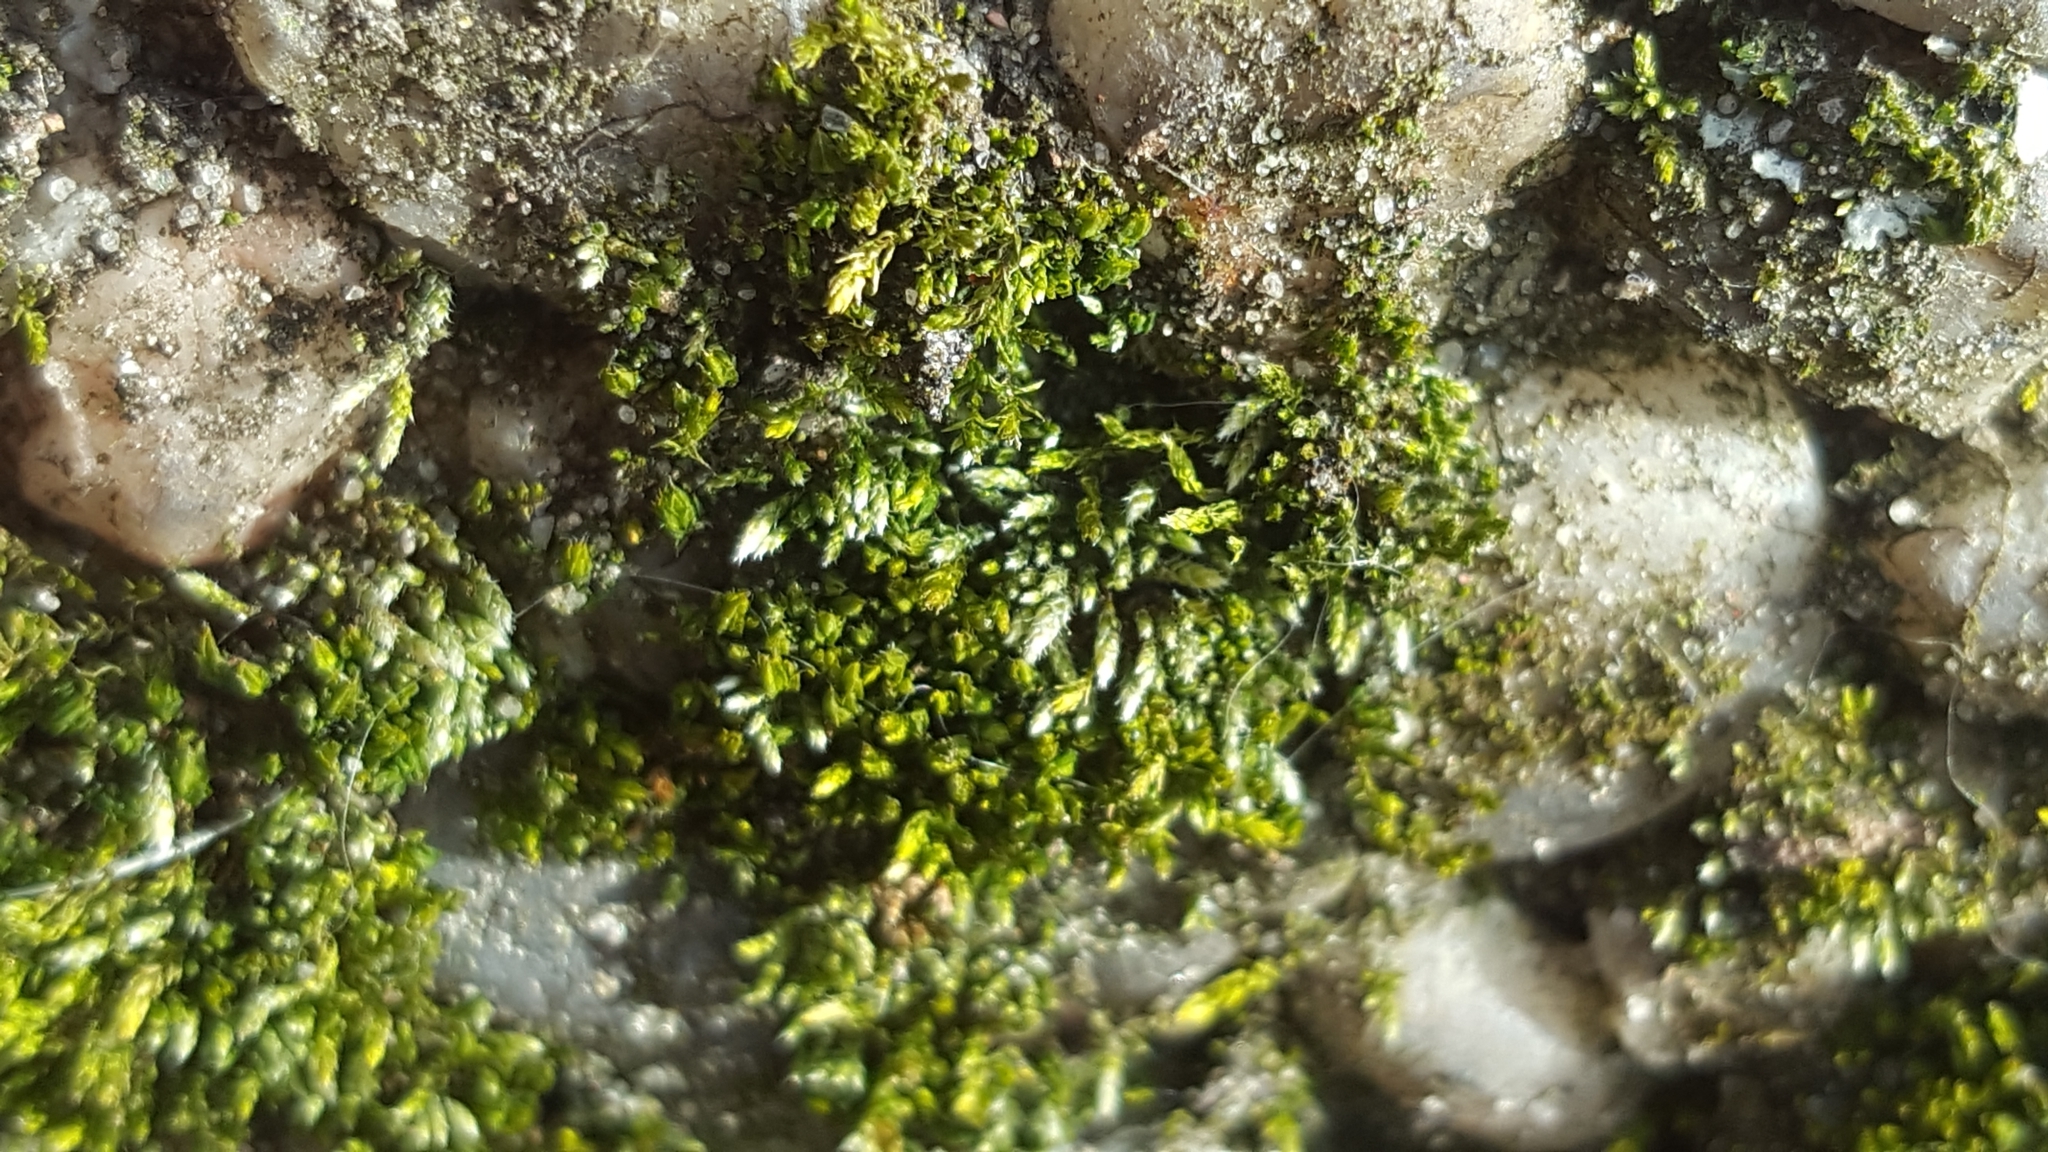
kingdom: Plantae
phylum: Bryophyta
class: Bryopsida
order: Bryales
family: Bryaceae
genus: Bryum
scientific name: Bryum argenteum
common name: Silver-moss
